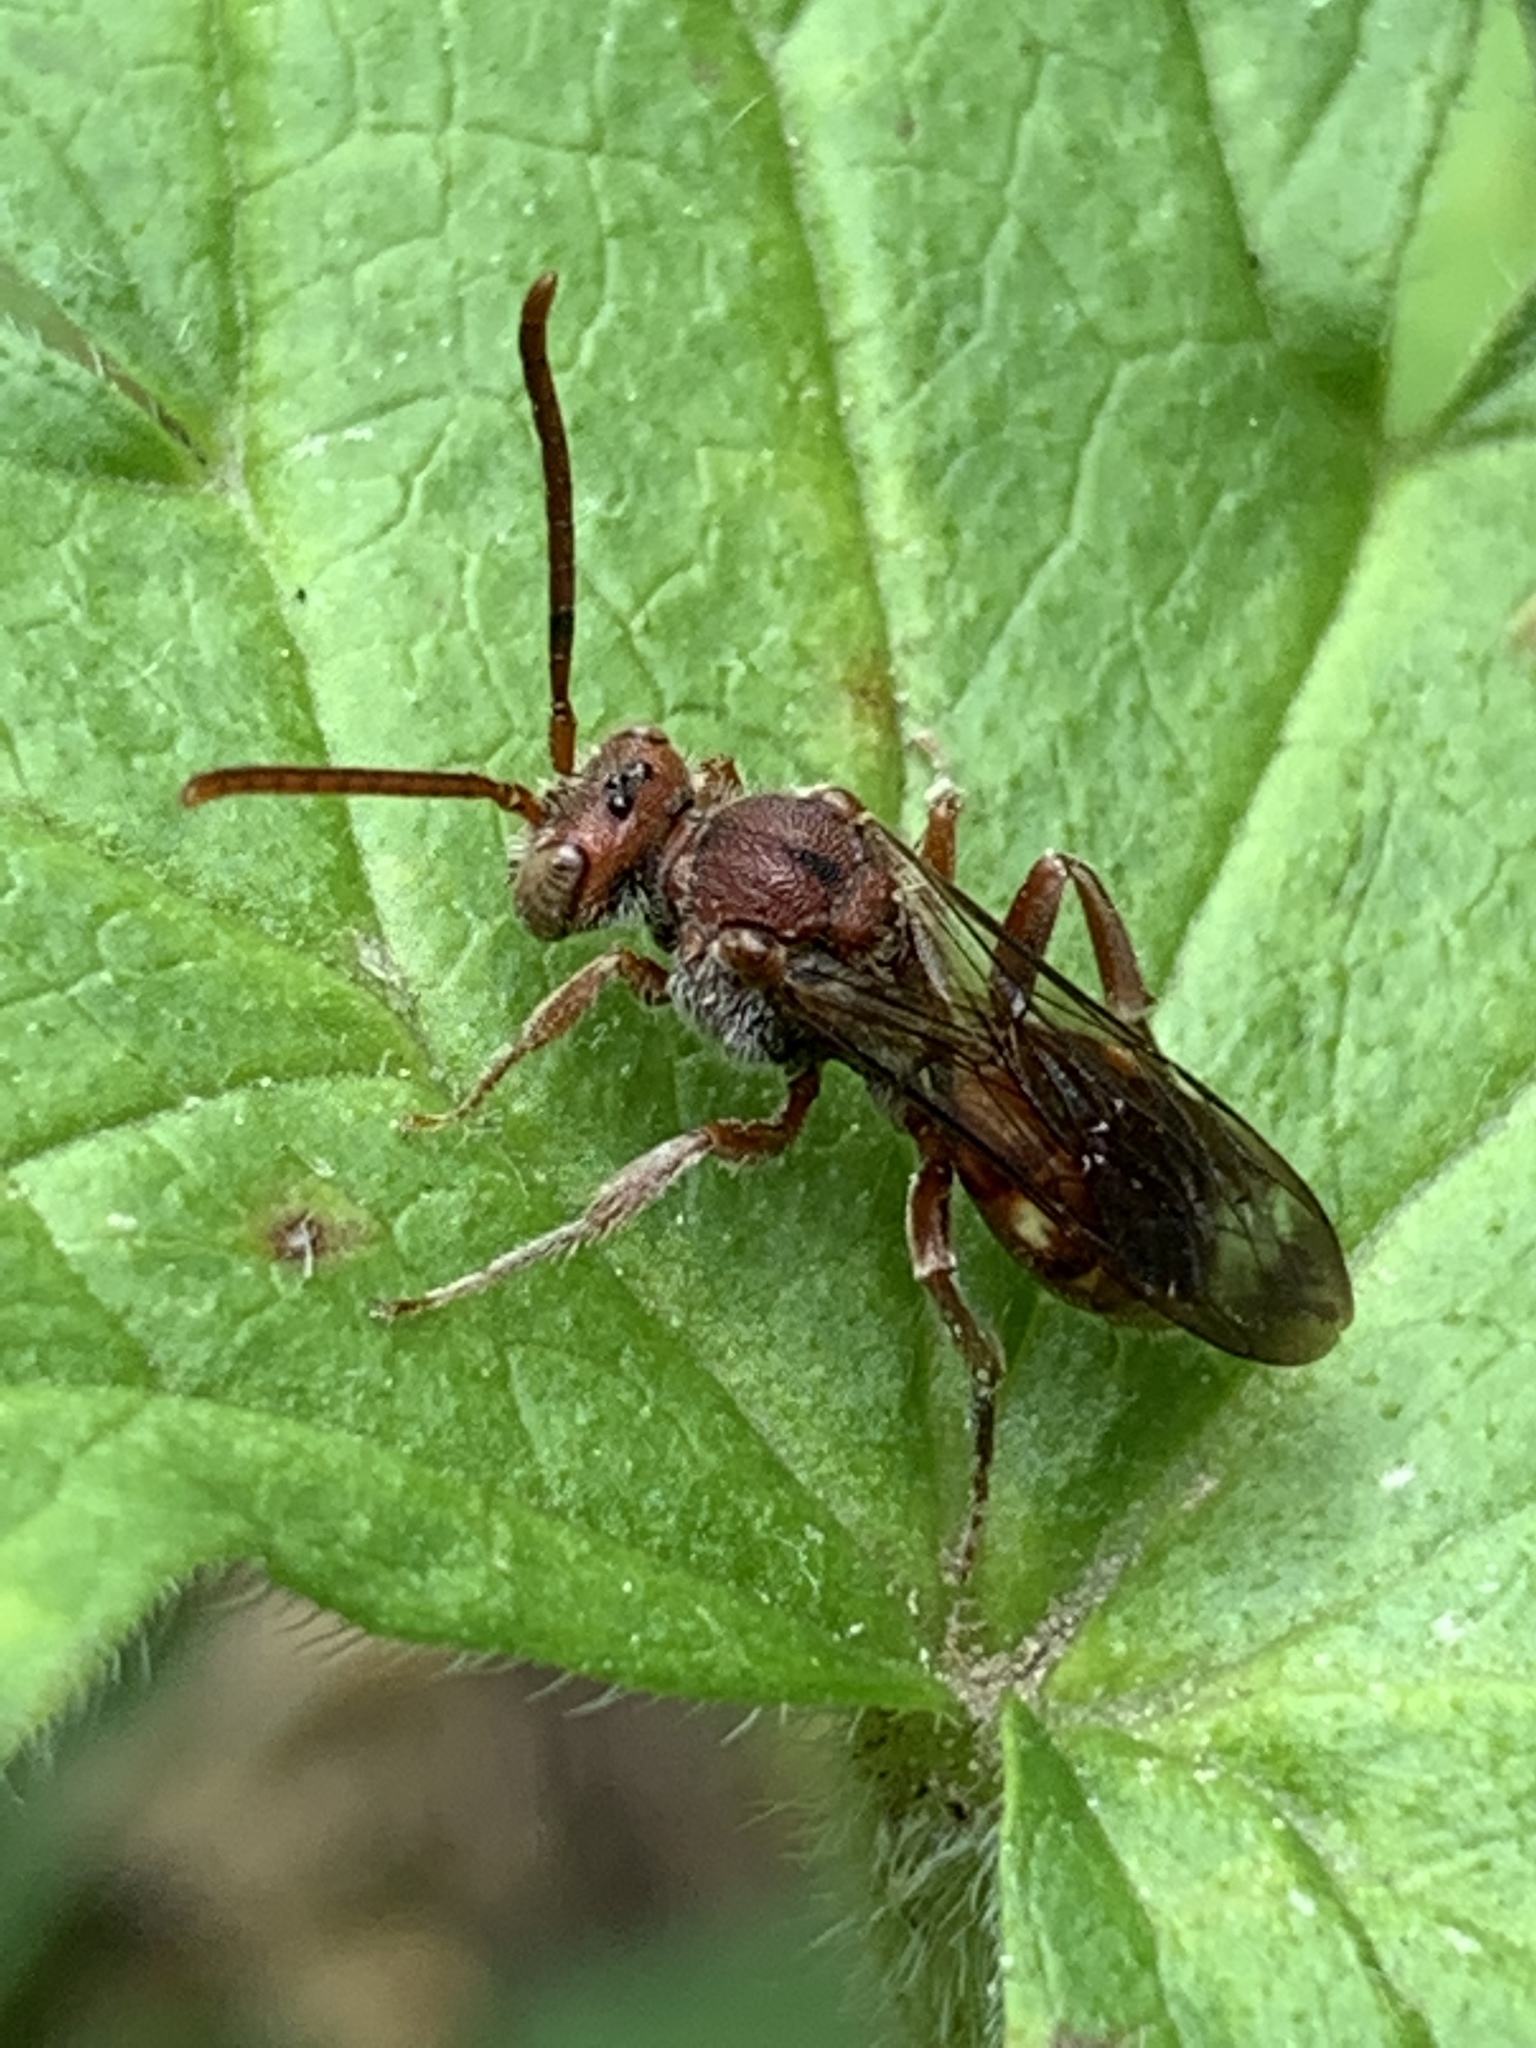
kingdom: Animalia
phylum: Arthropoda
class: Insecta
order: Hymenoptera
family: Apidae
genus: Nomada
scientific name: Nomada
